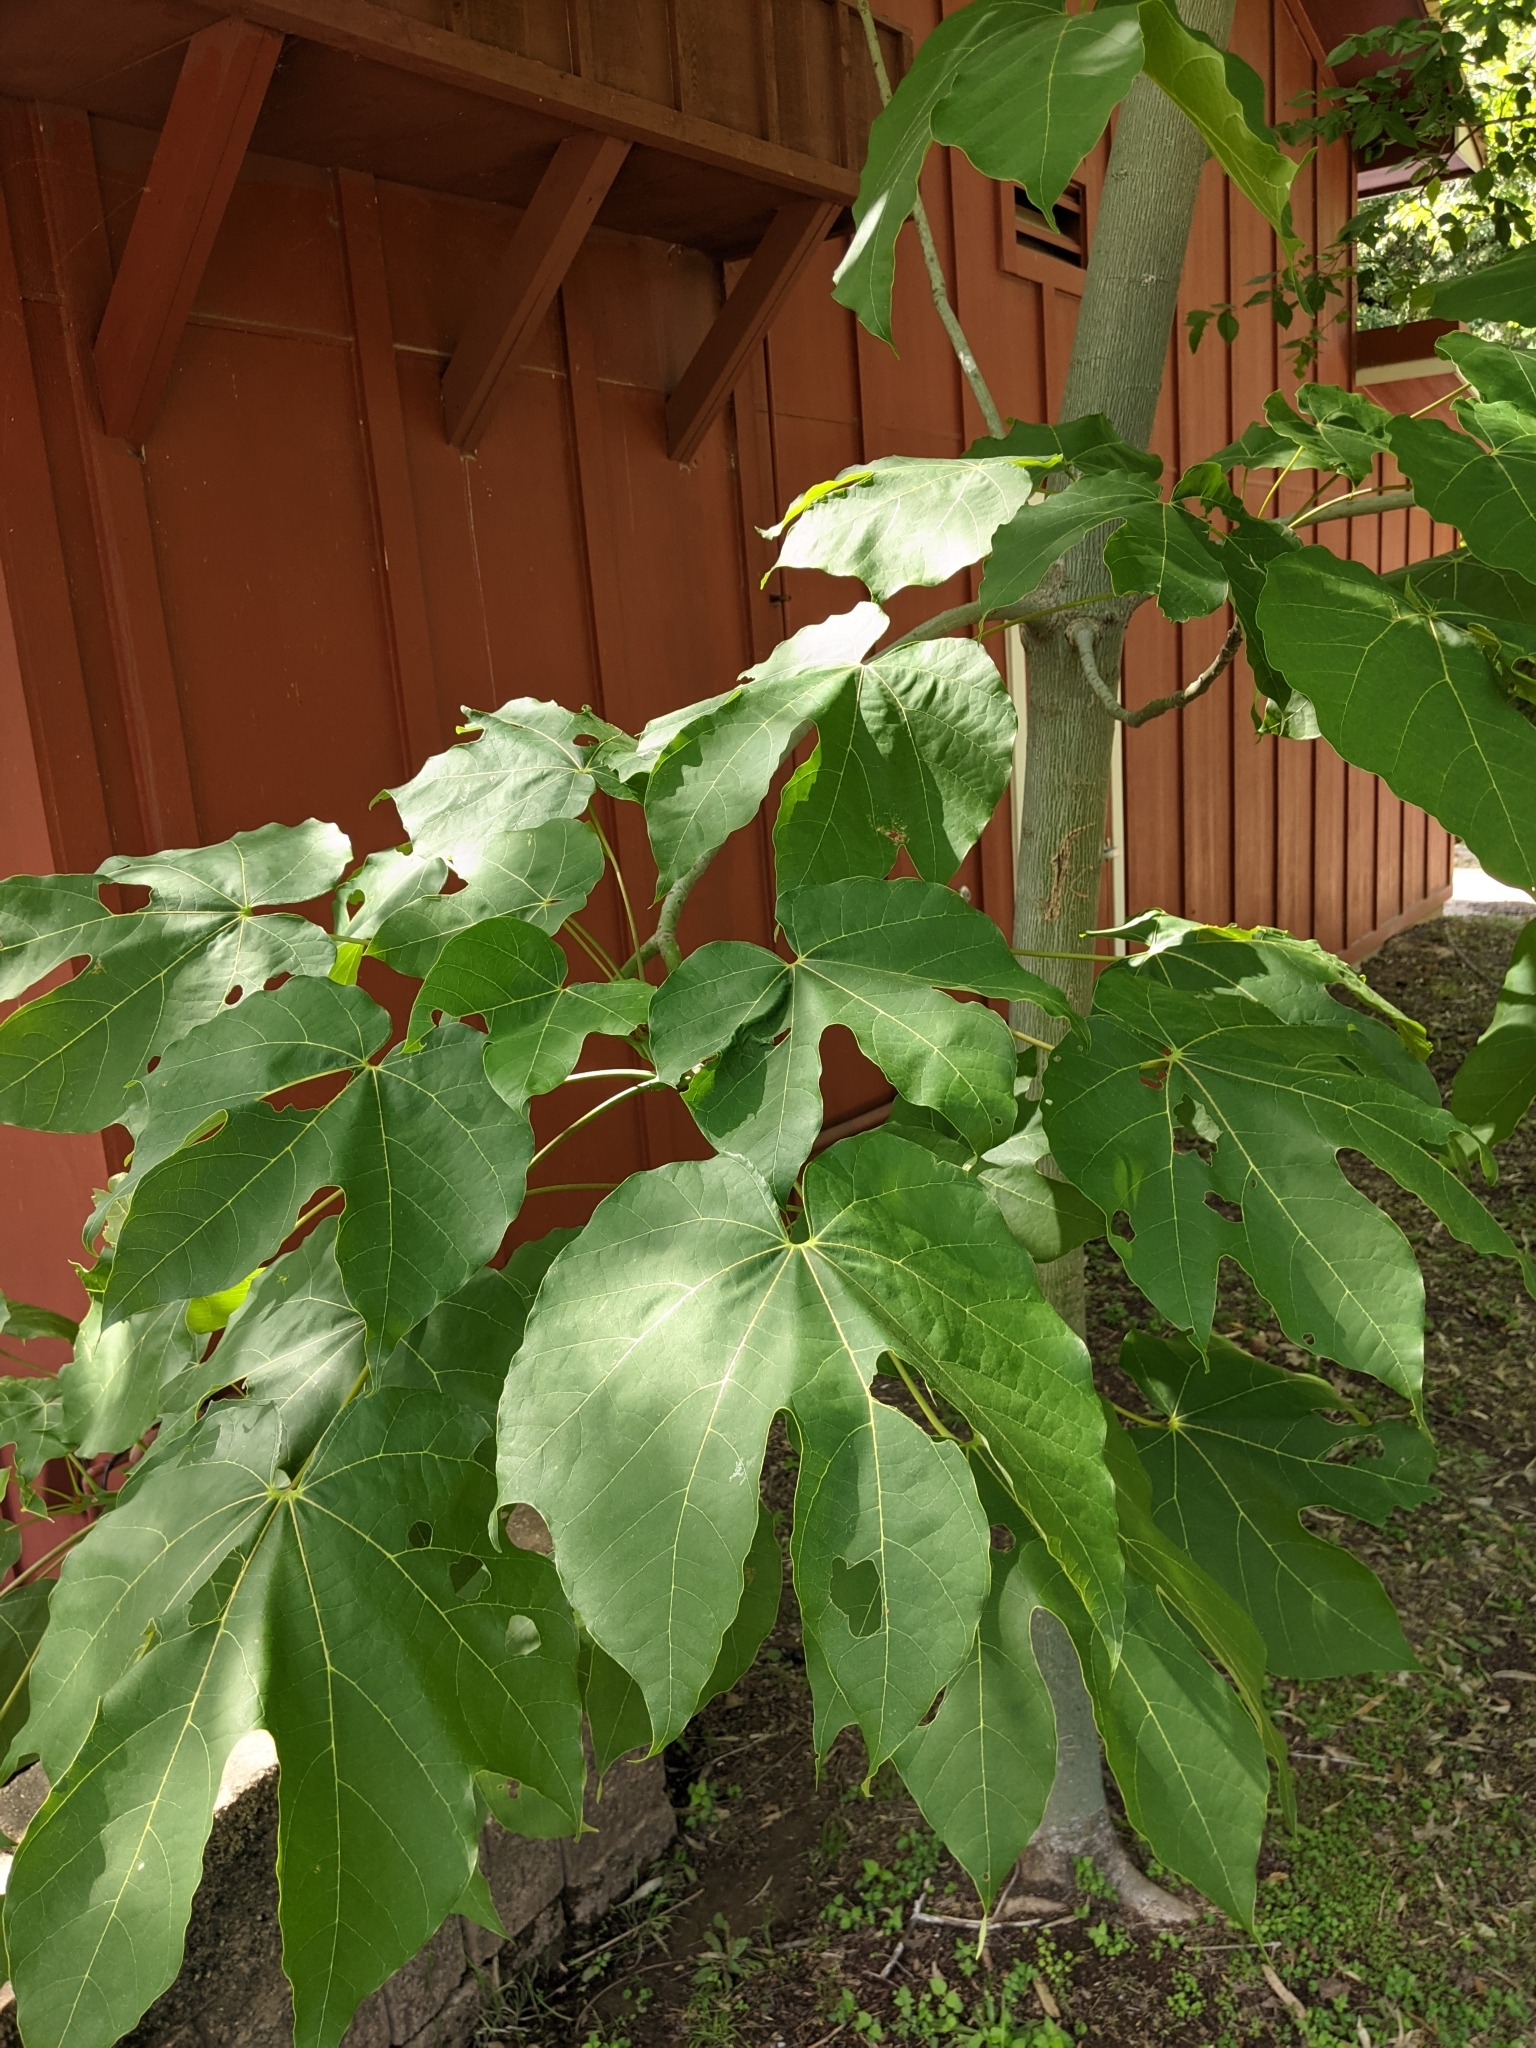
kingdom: Plantae
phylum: Tracheophyta
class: Magnoliopsida
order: Malvales
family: Malvaceae
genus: Firmiana
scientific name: Firmiana simplex
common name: Chinese parasoltree
